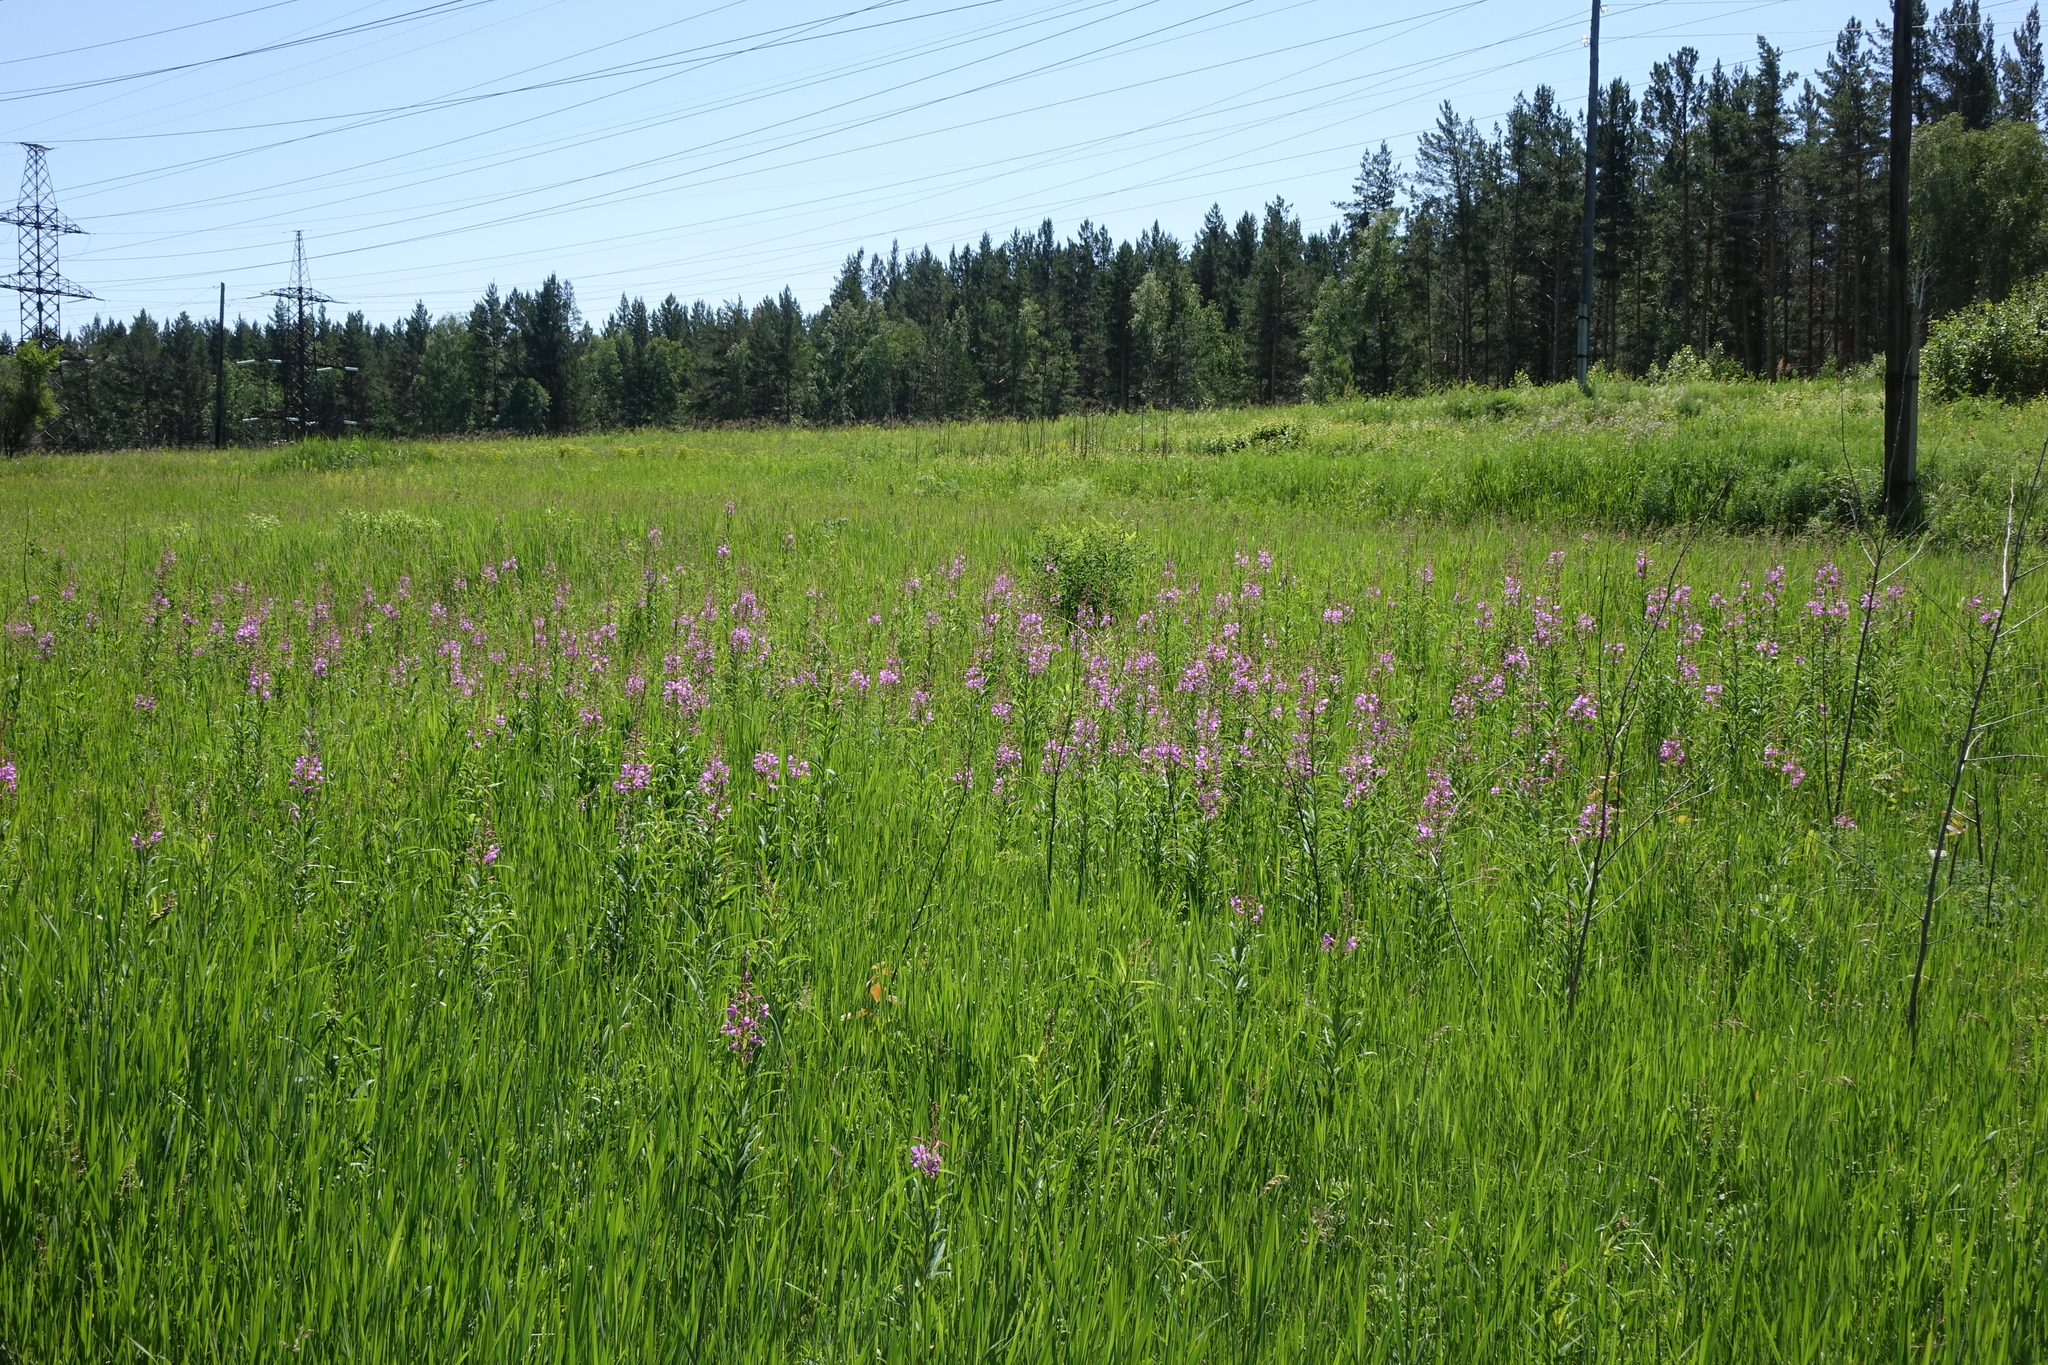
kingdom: Plantae
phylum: Tracheophyta
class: Magnoliopsida
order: Myrtales
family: Onagraceae
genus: Chamaenerion
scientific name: Chamaenerion angustifolium
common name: Fireweed
